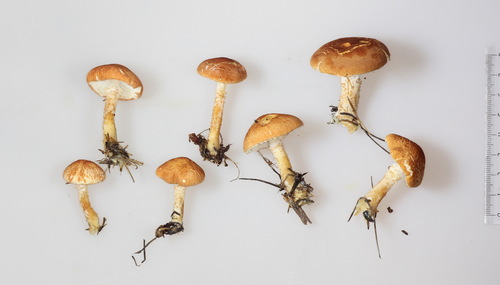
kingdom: Fungi
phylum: Basidiomycota
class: Agaricomycetes
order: Agaricales
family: Agaricaceae
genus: Cystodermella
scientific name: Cystodermella cinnabarina
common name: Cinnabar powdercap
